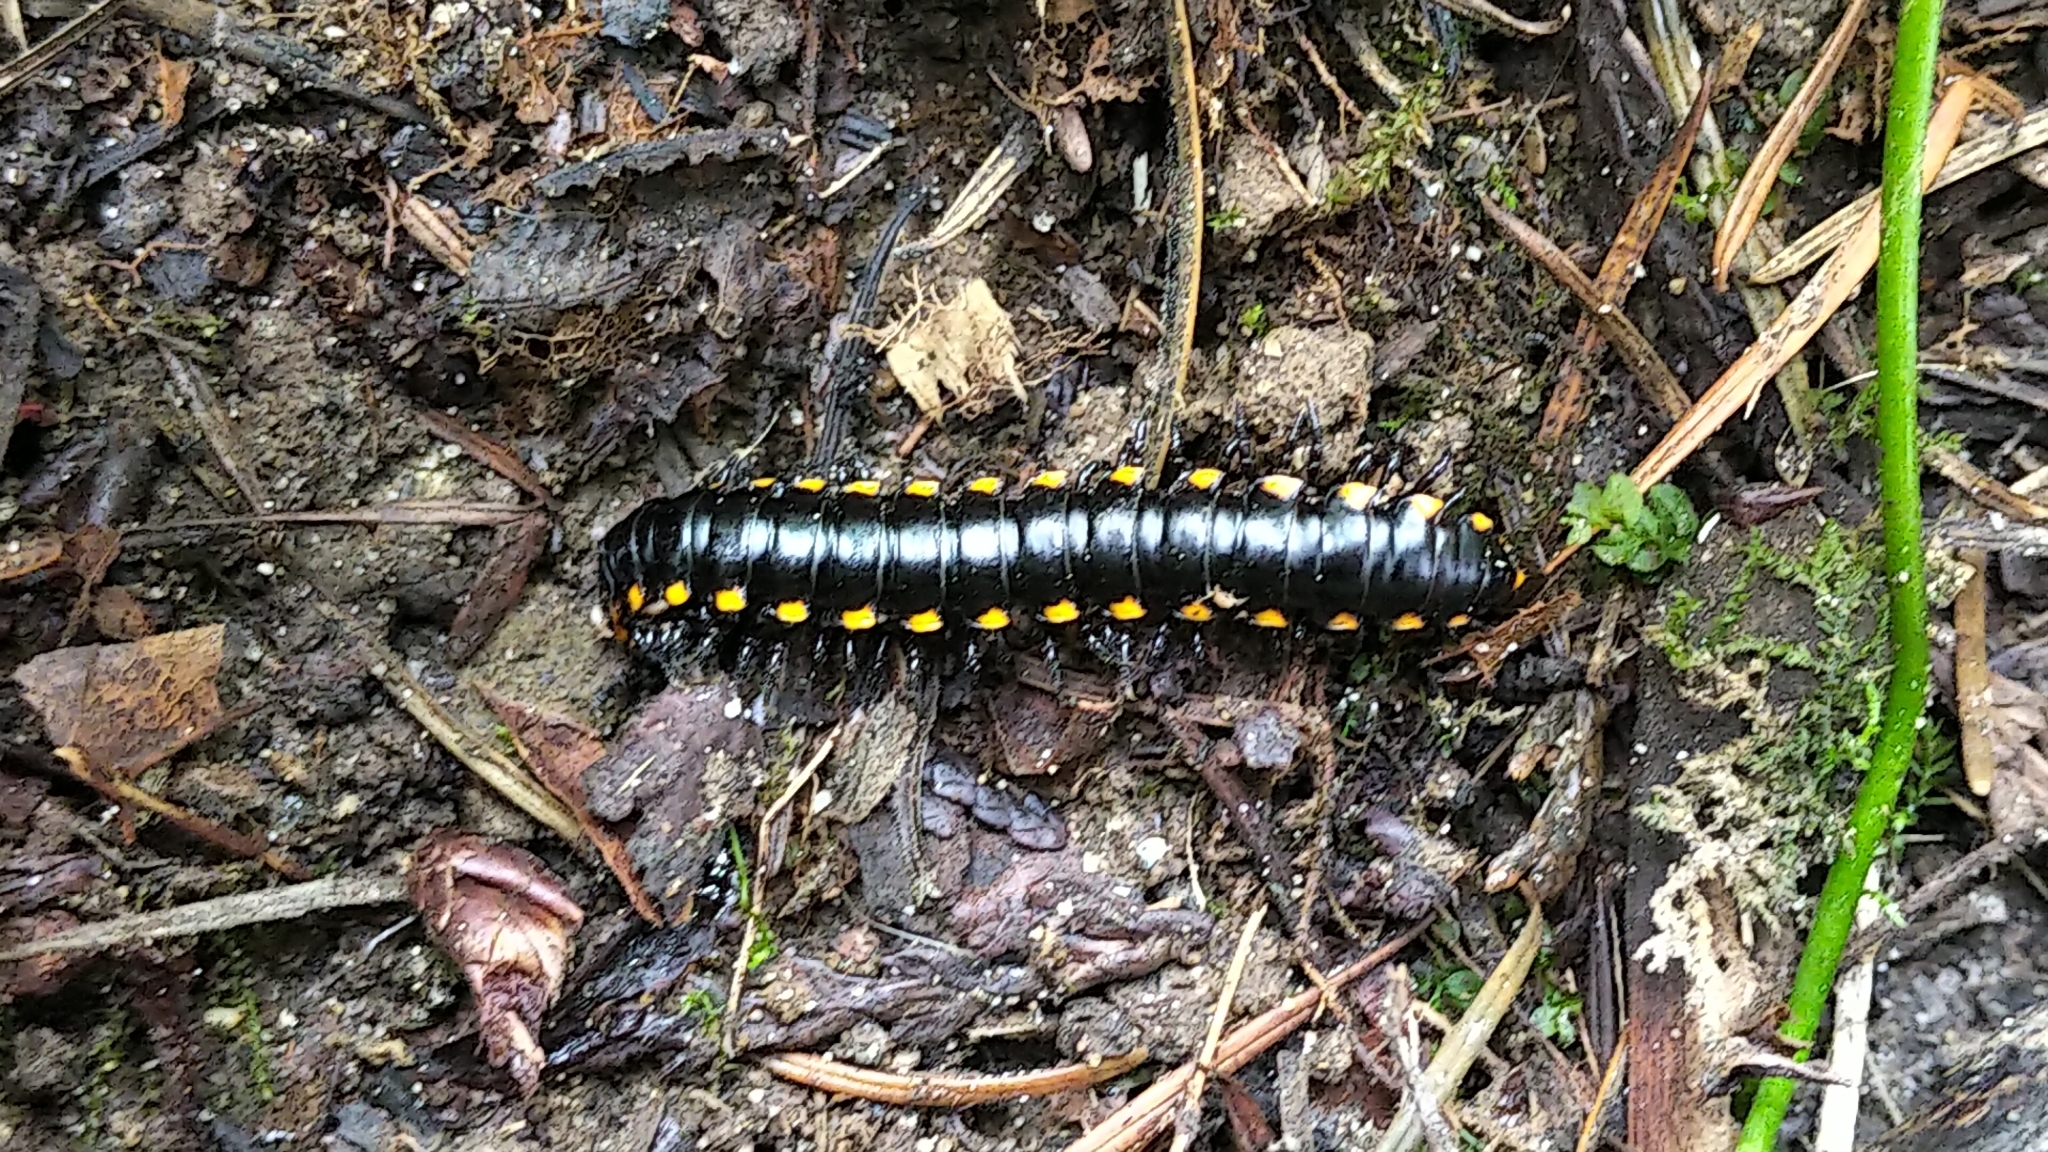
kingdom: Animalia
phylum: Arthropoda
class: Diplopoda
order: Polydesmida
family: Xystodesmidae
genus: Harpaphe
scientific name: Harpaphe haydeniana
